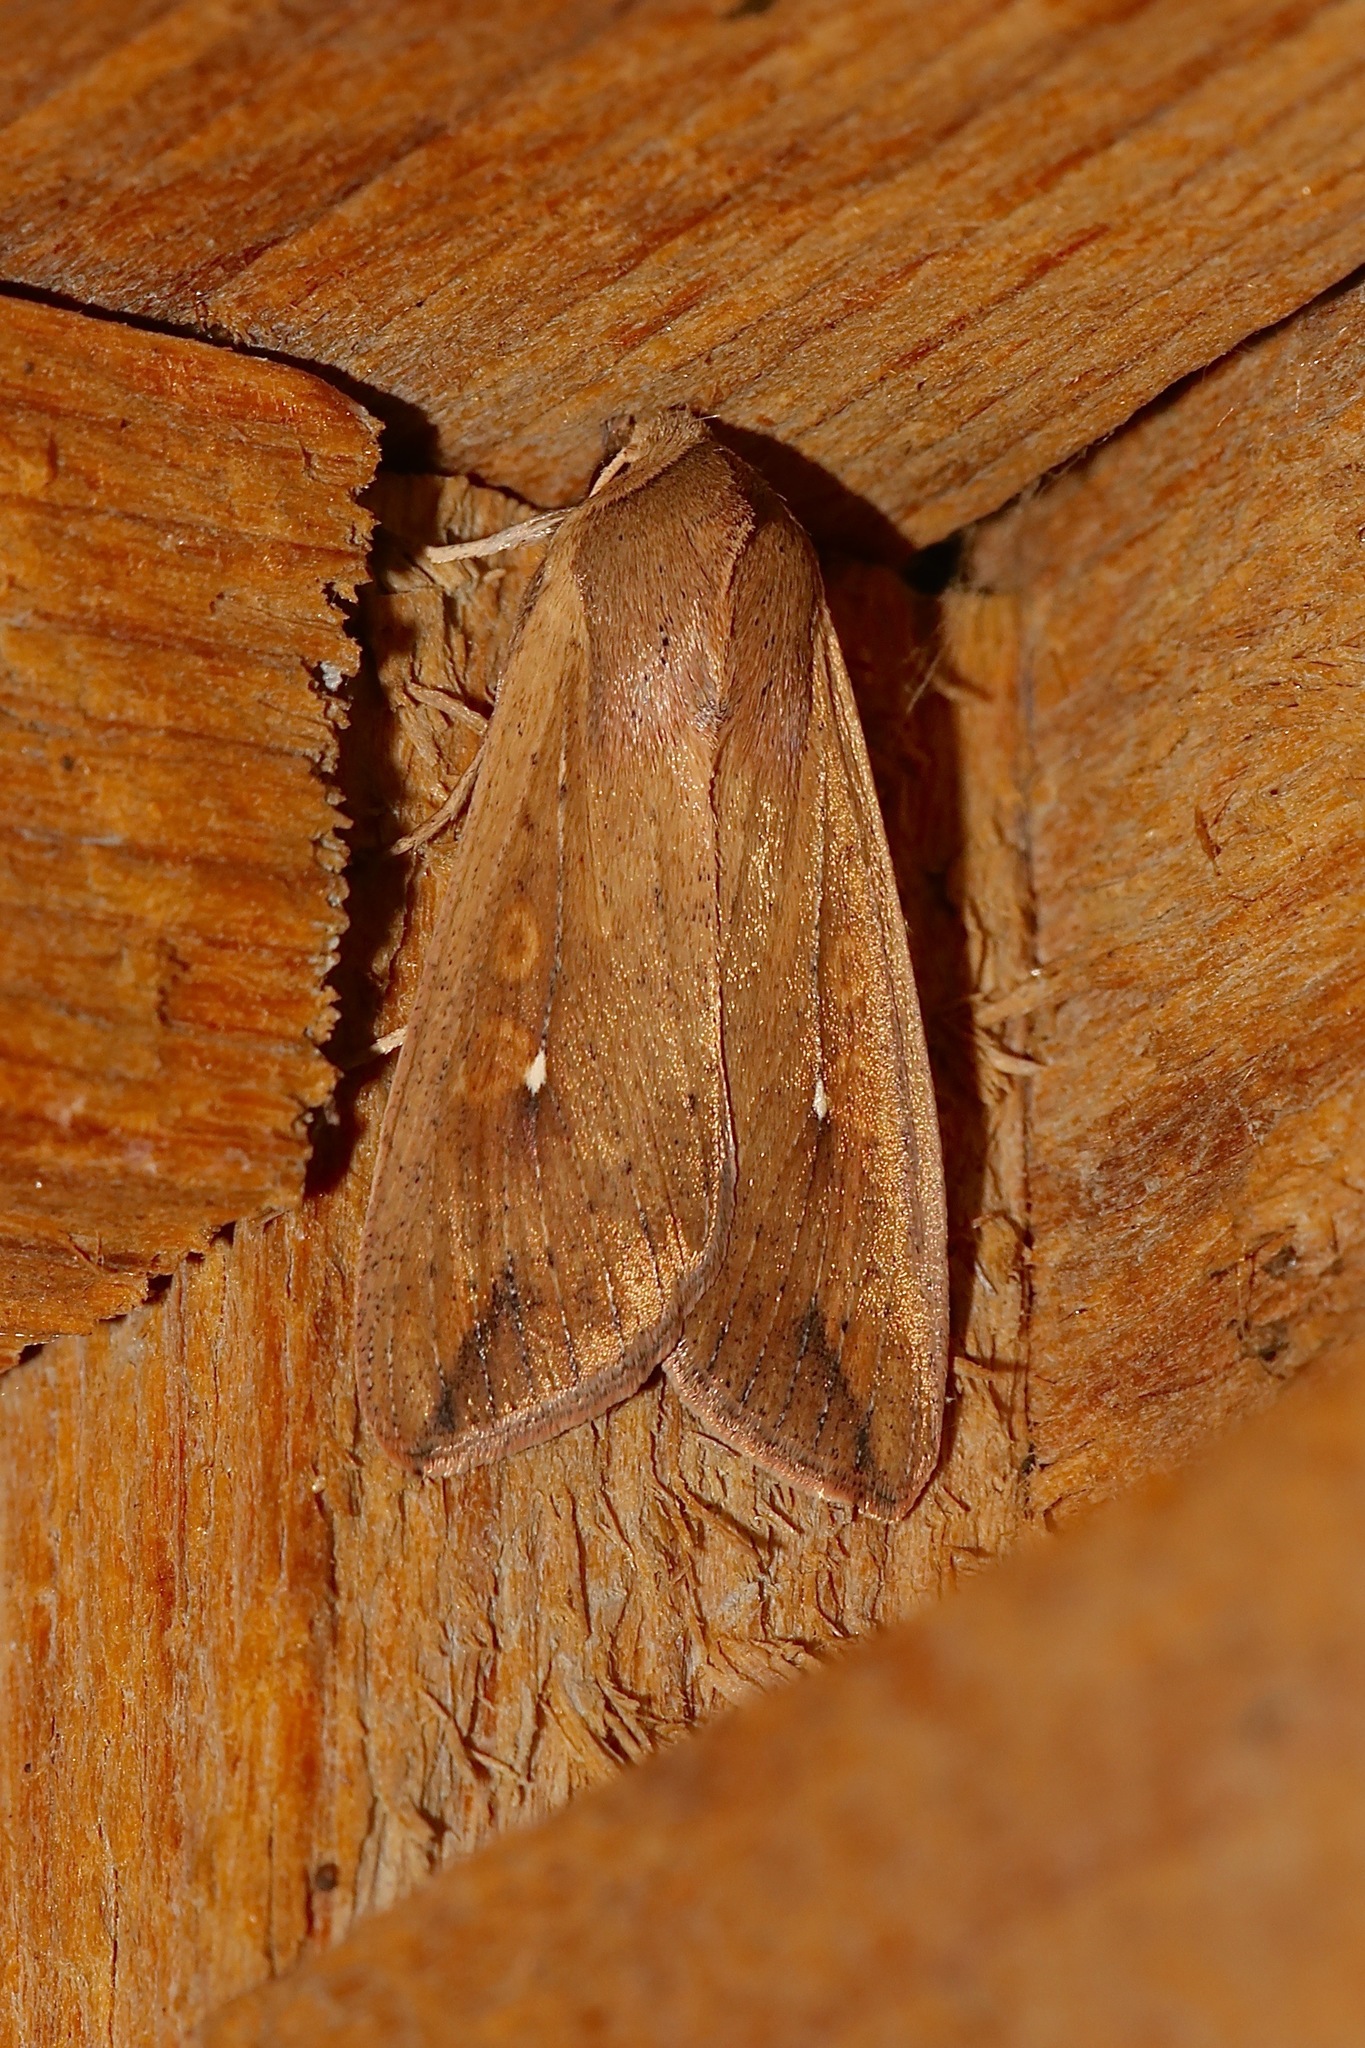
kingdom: Animalia
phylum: Arthropoda
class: Insecta
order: Lepidoptera
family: Noctuidae
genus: Mythimna
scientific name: Mythimna unipuncta
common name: White-speck
